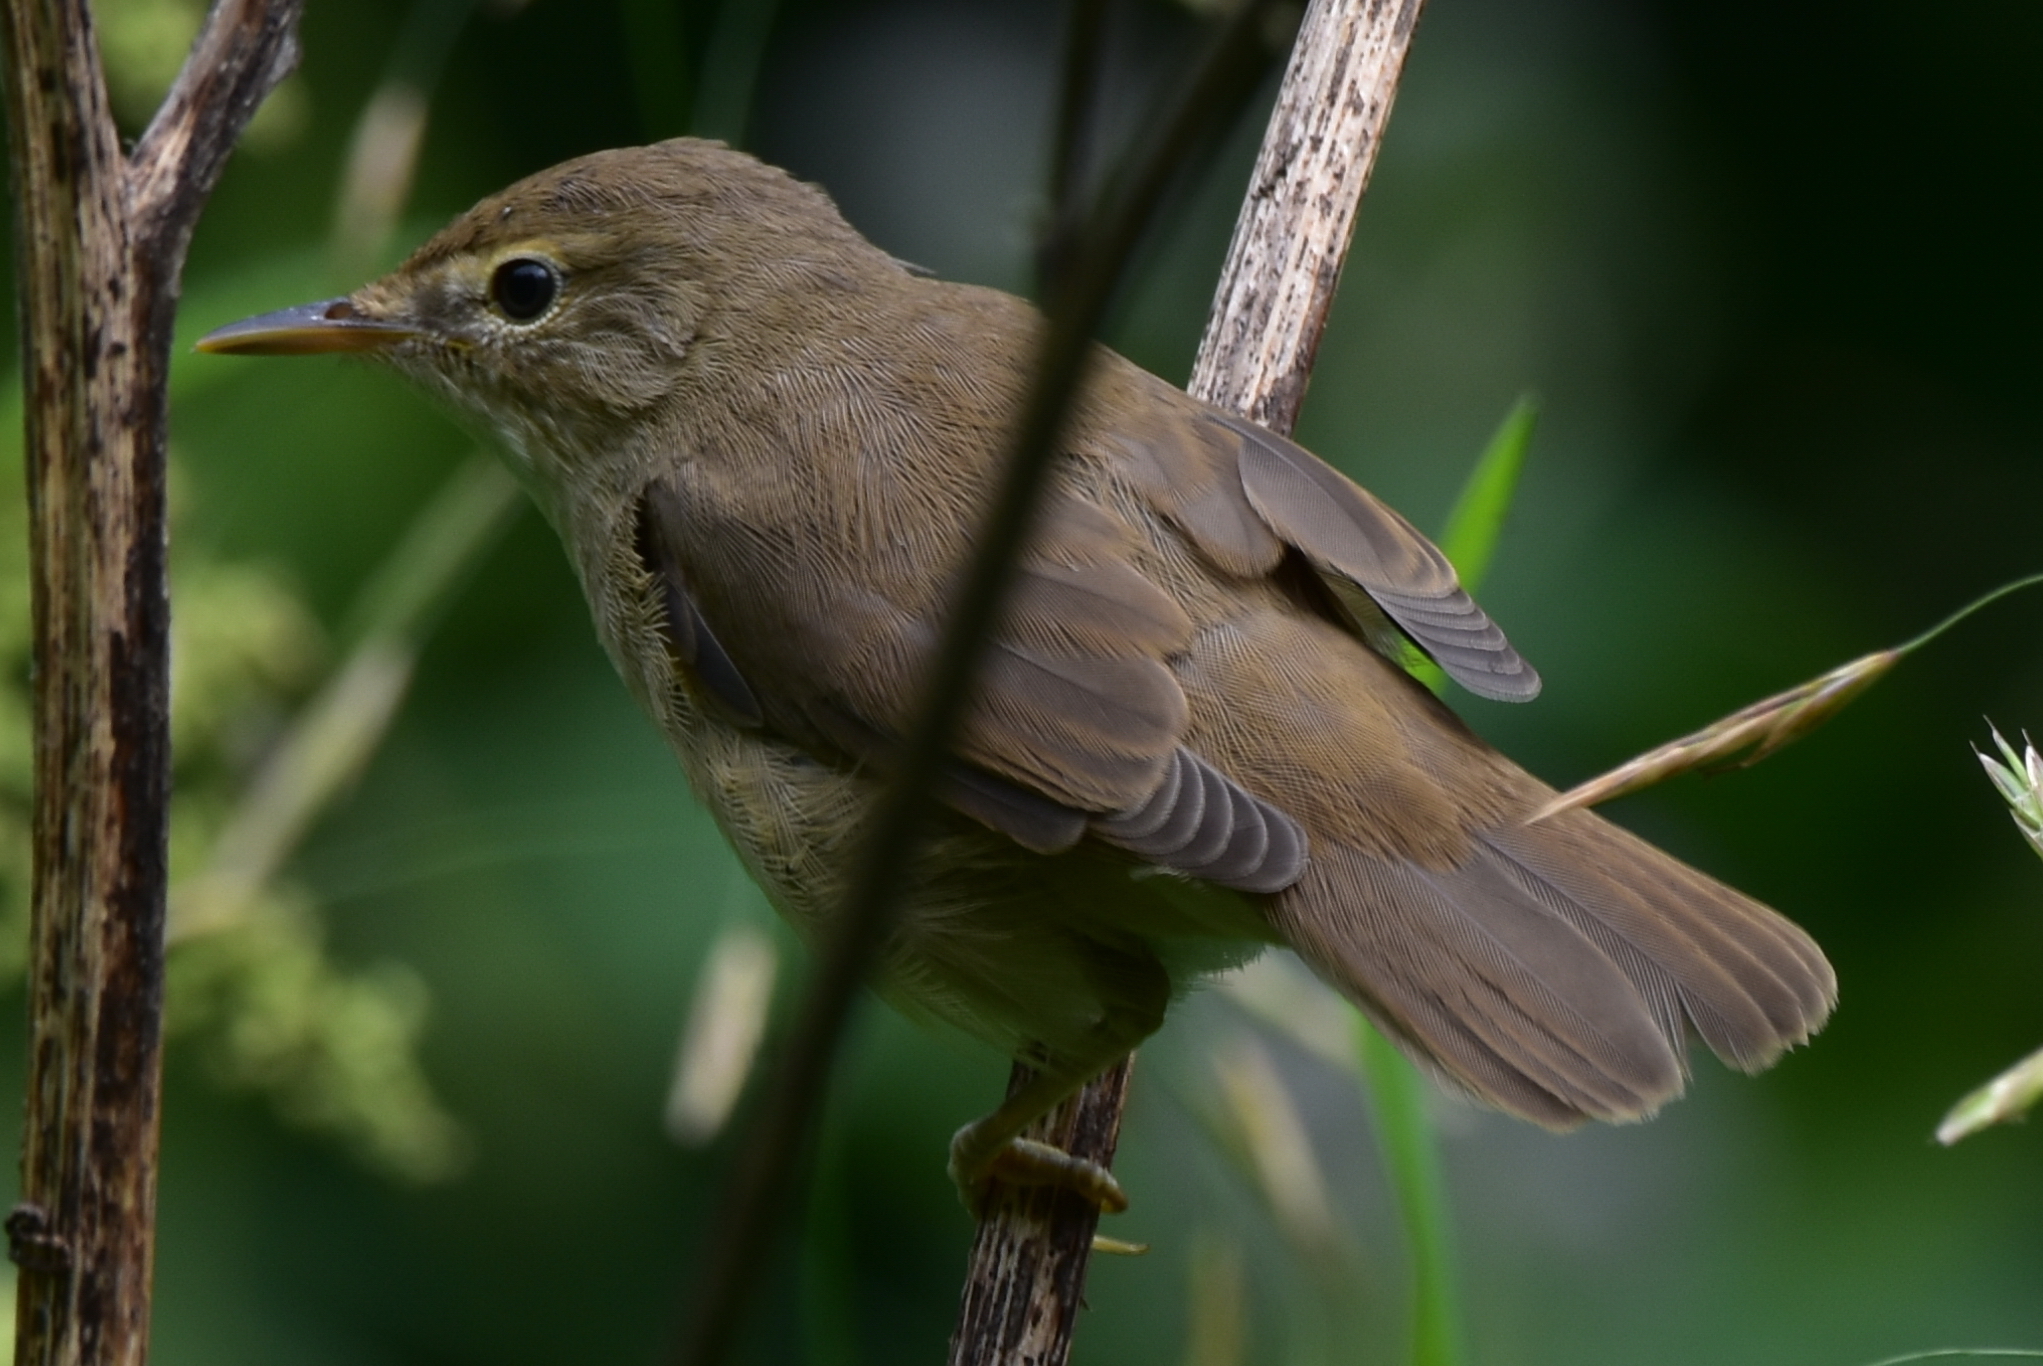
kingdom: Animalia
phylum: Chordata
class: Aves
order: Passeriformes
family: Acrocephalidae
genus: Acrocephalus
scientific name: Acrocephalus dumetorum
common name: Blyth's reed warbler
